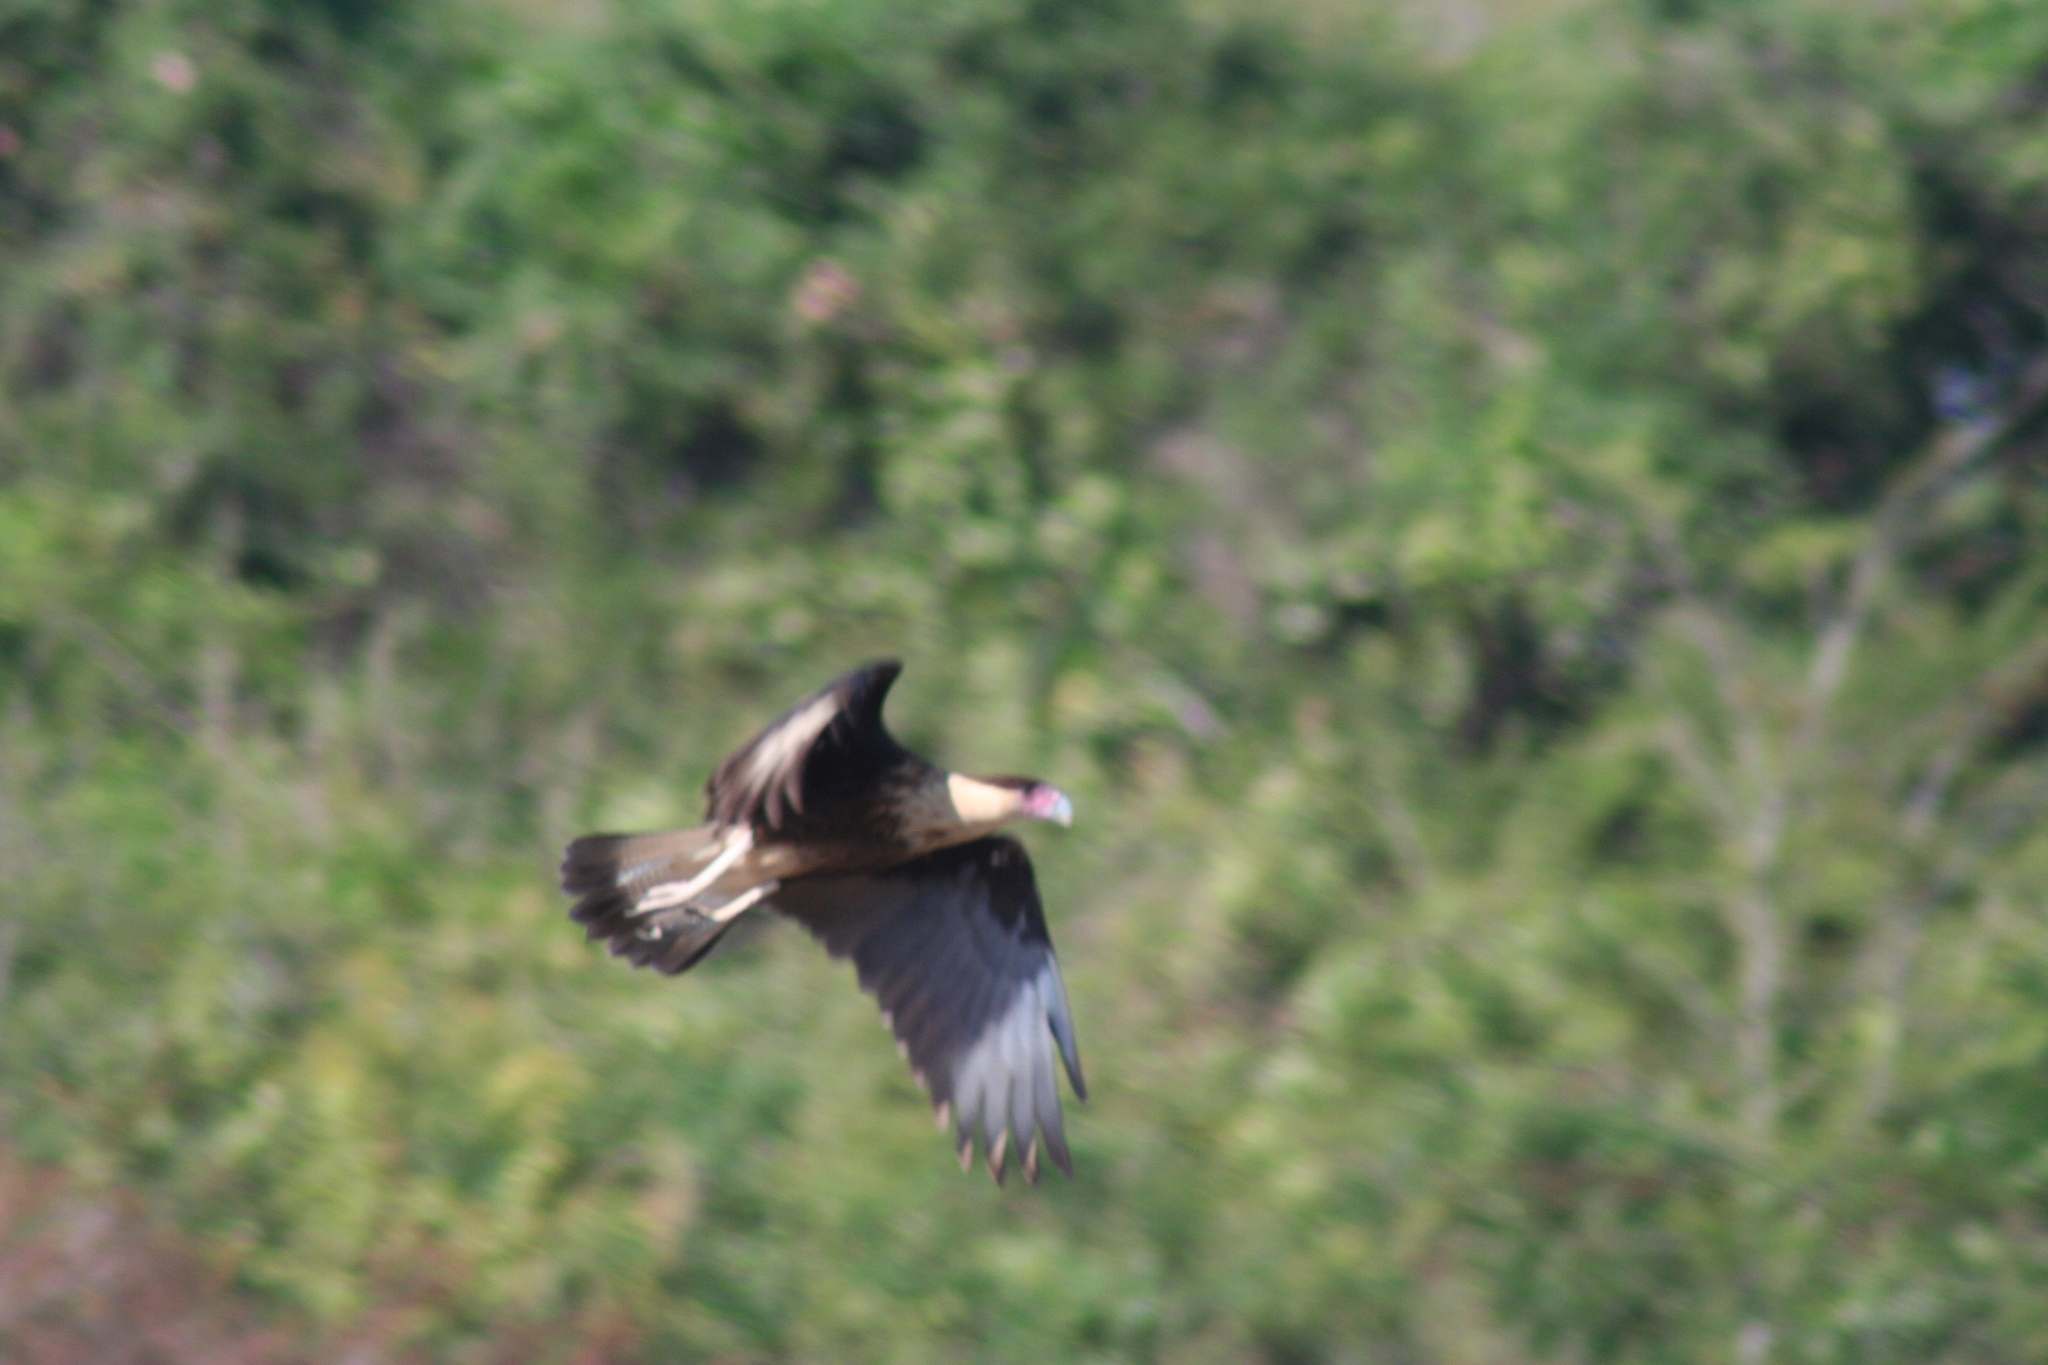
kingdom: Animalia
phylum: Chordata
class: Aves
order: Falconiformes
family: Falconidae
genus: Caracara
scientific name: Caracara plancus
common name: Southern caracara
